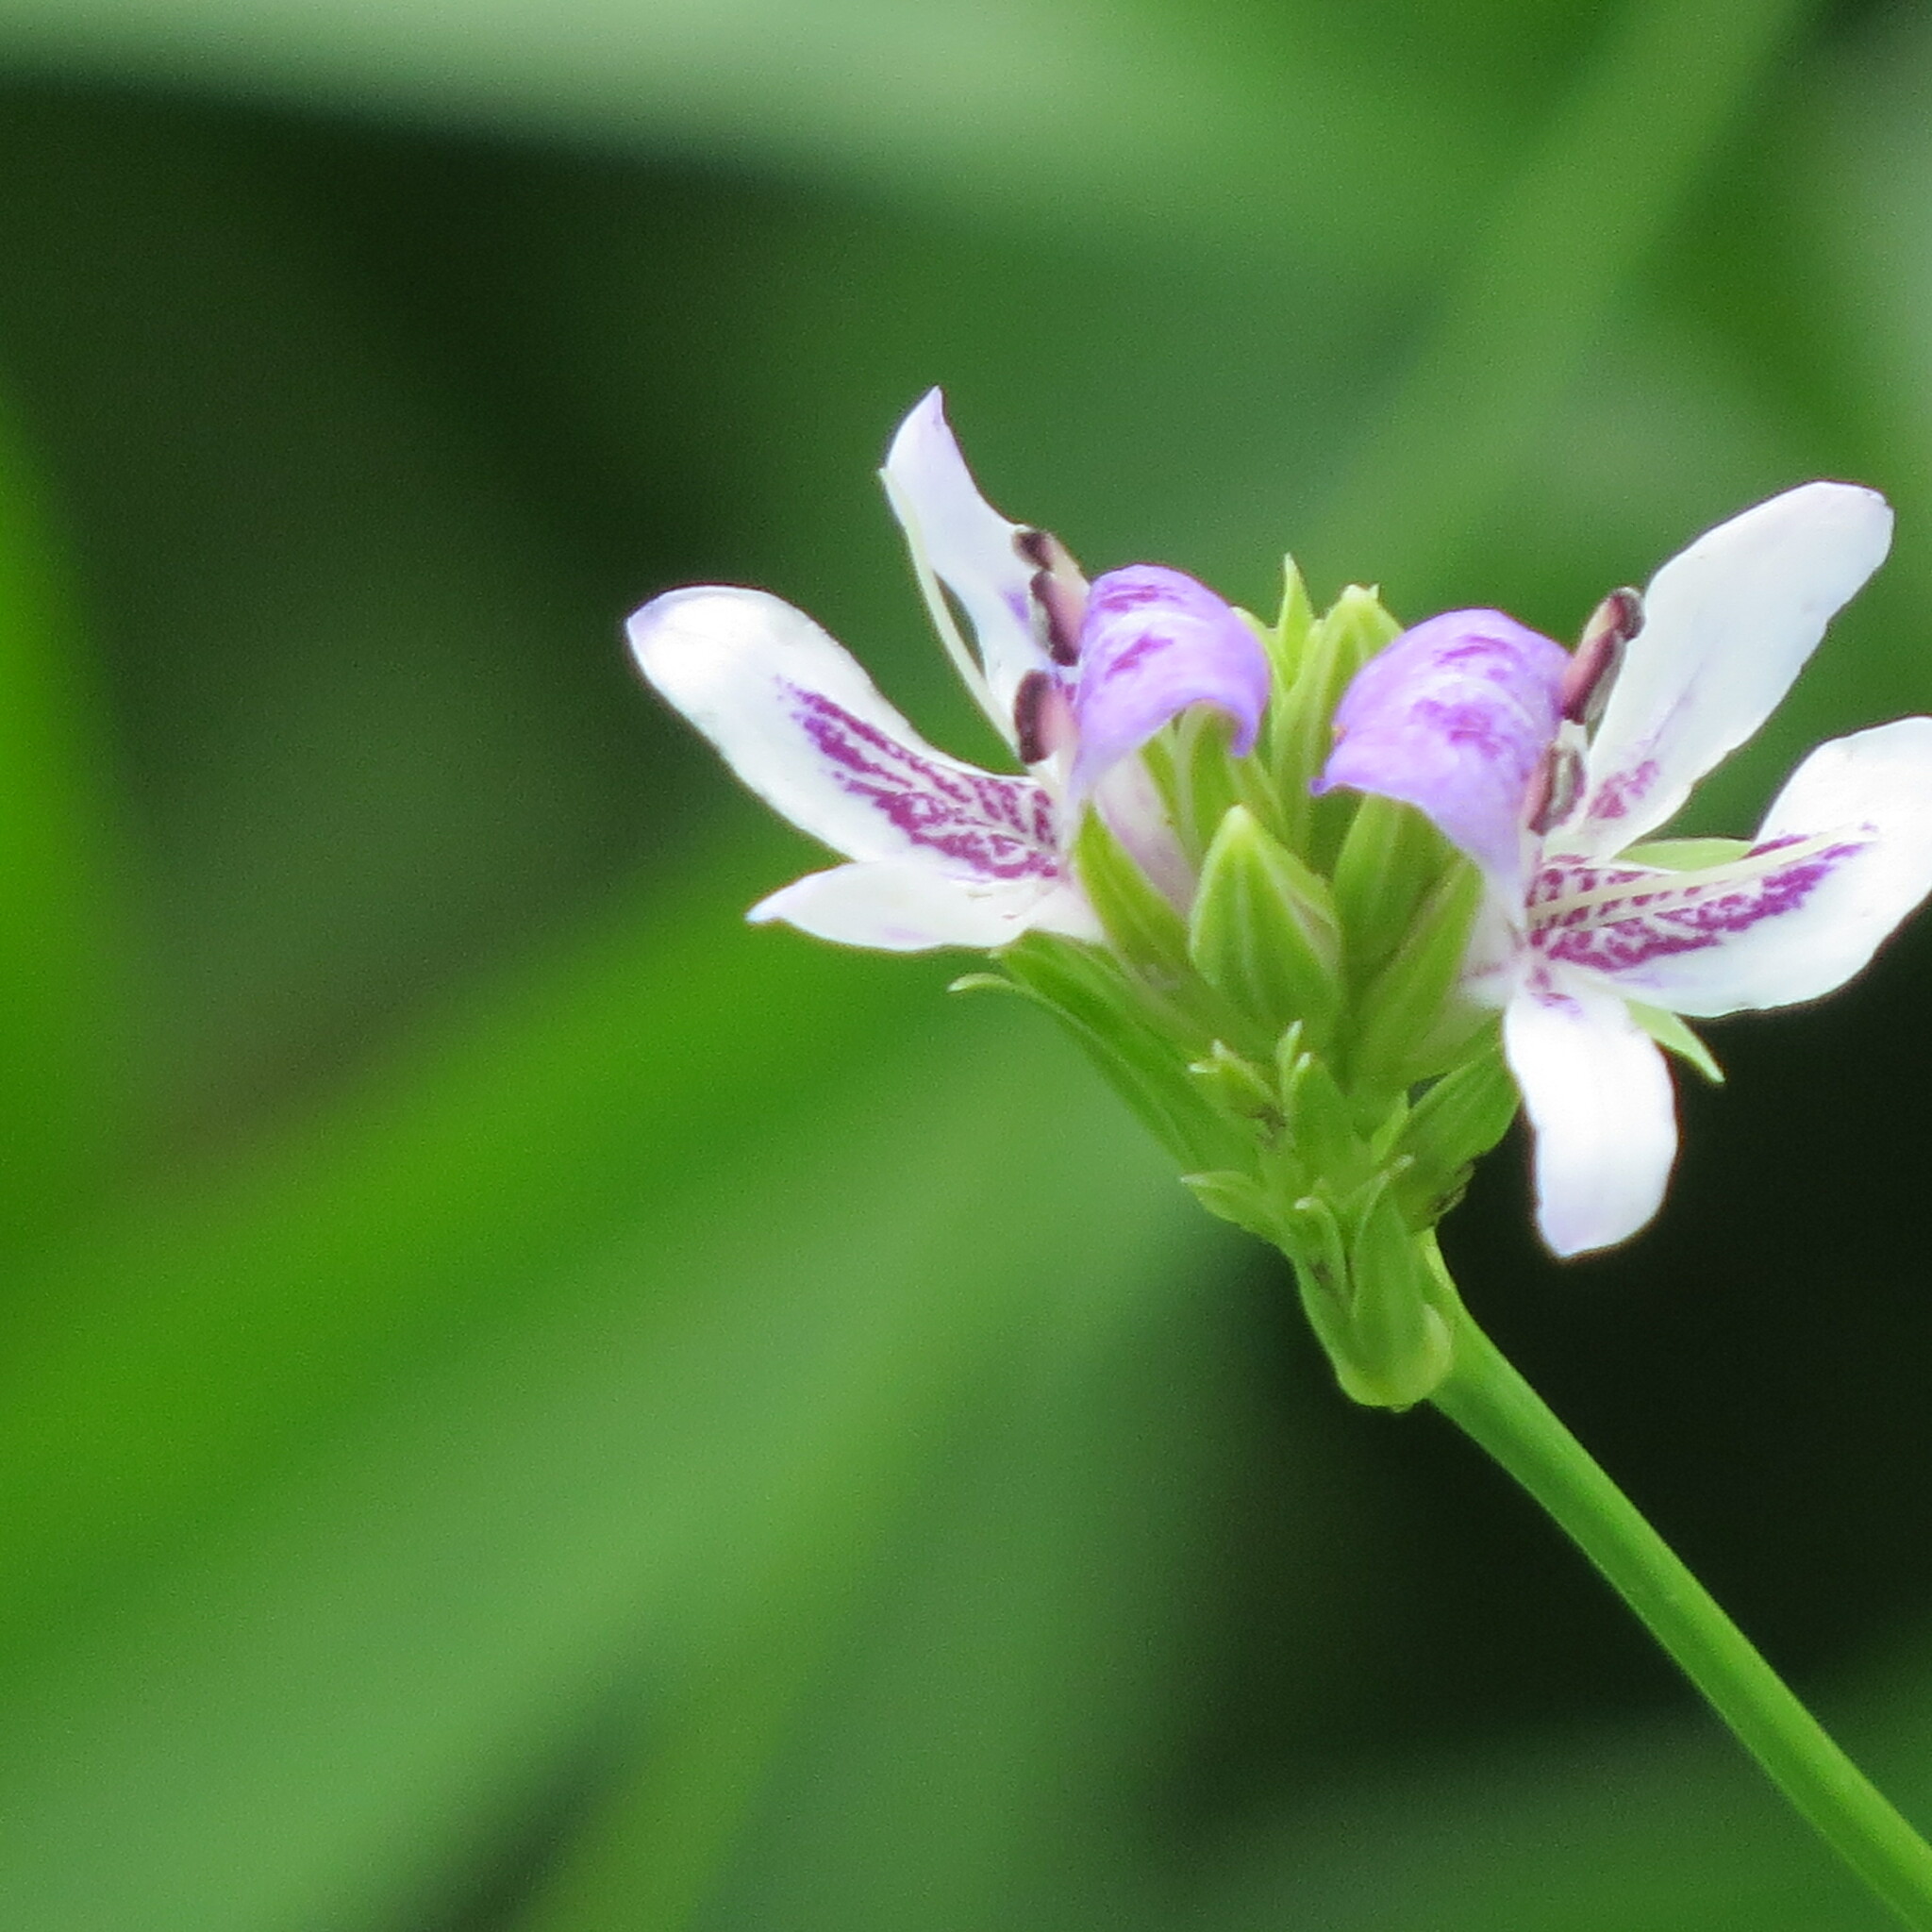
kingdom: Plantae
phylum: Tracheophyta
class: Magnoliopsida
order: Lamiales
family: Acanthaceae
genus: Dianthera
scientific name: Dianthera americana
